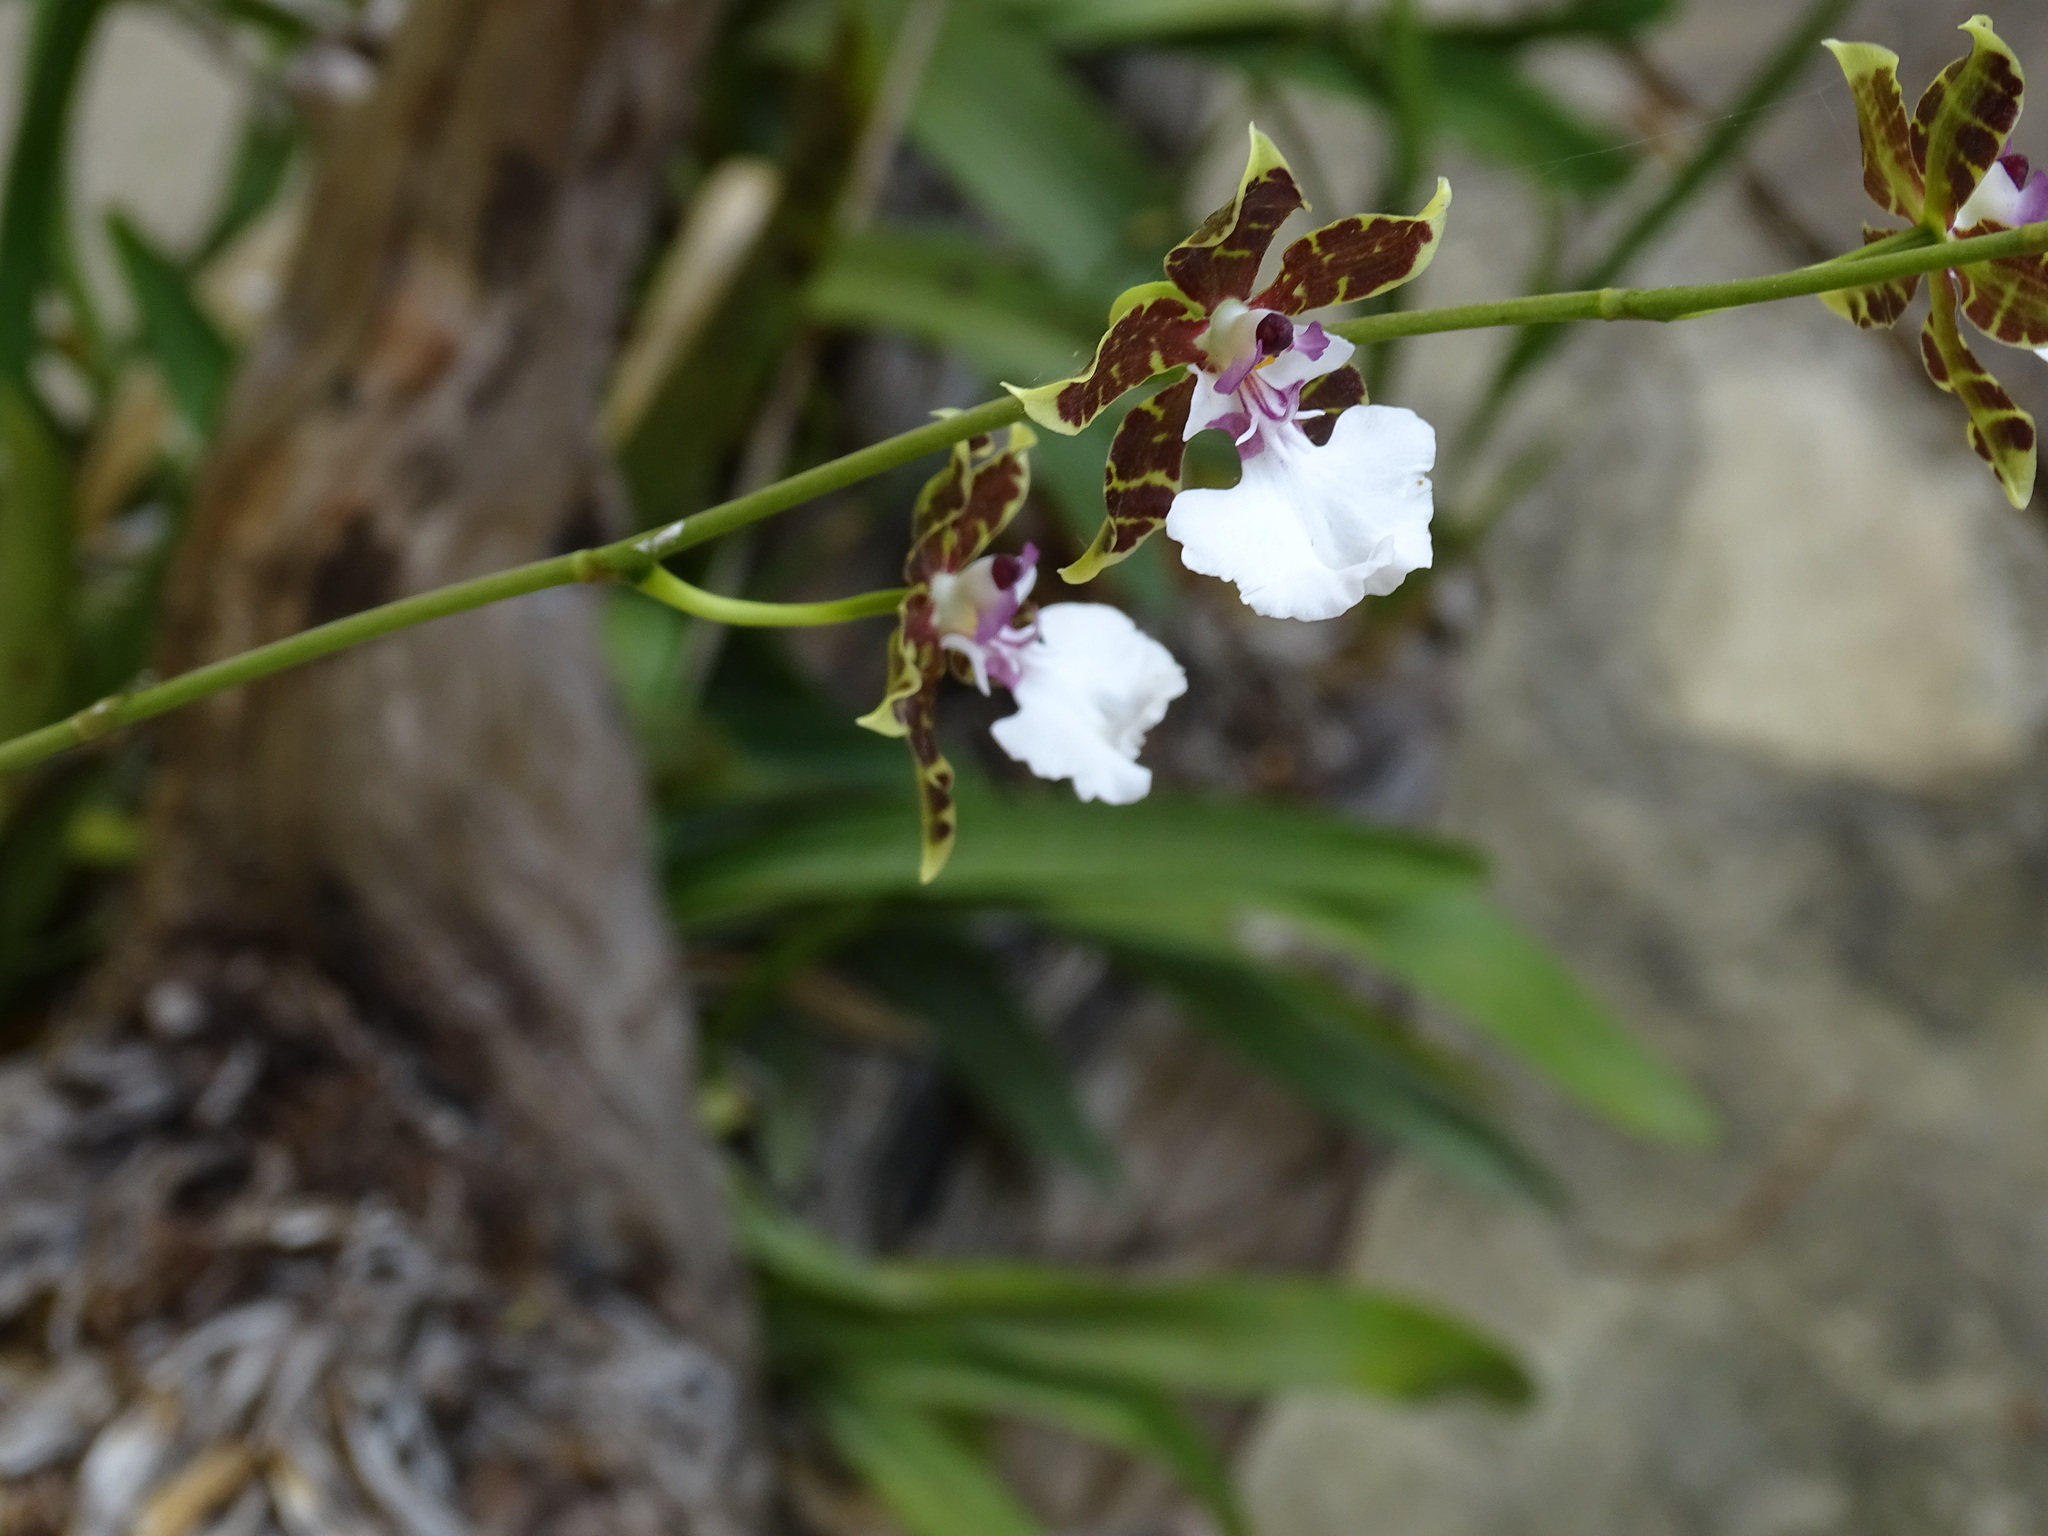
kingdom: Plantae
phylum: Tracheophyta
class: Liliopsida
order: Asparagales
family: Orchidaceae
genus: Oncidium
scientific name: Oncidium leucochilum
